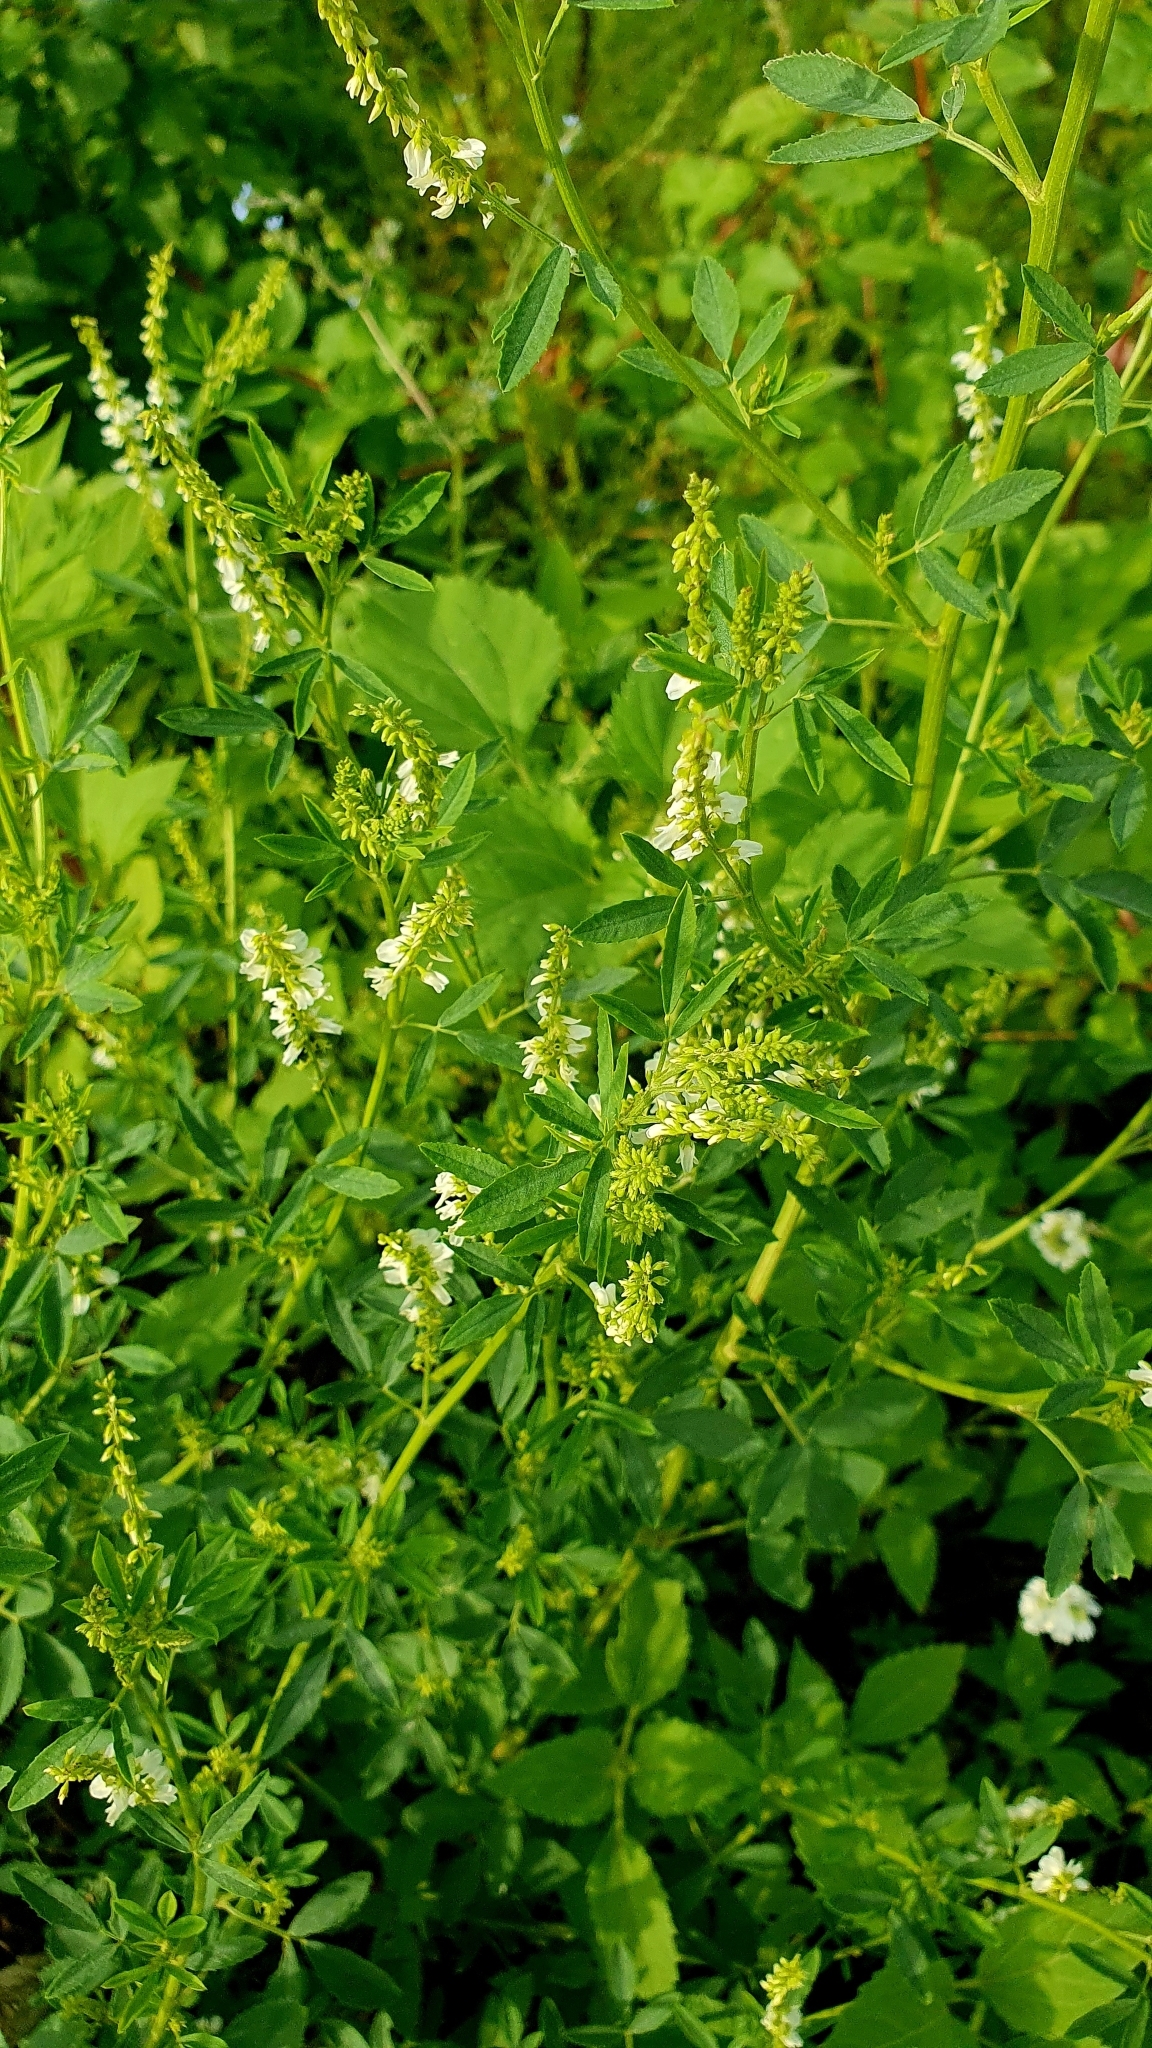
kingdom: Plantae
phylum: Tracheophyta
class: Magnoliopsida
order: Fabales
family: Fabaceae
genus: Melilotus
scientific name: Melilotus albus
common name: White melilot
